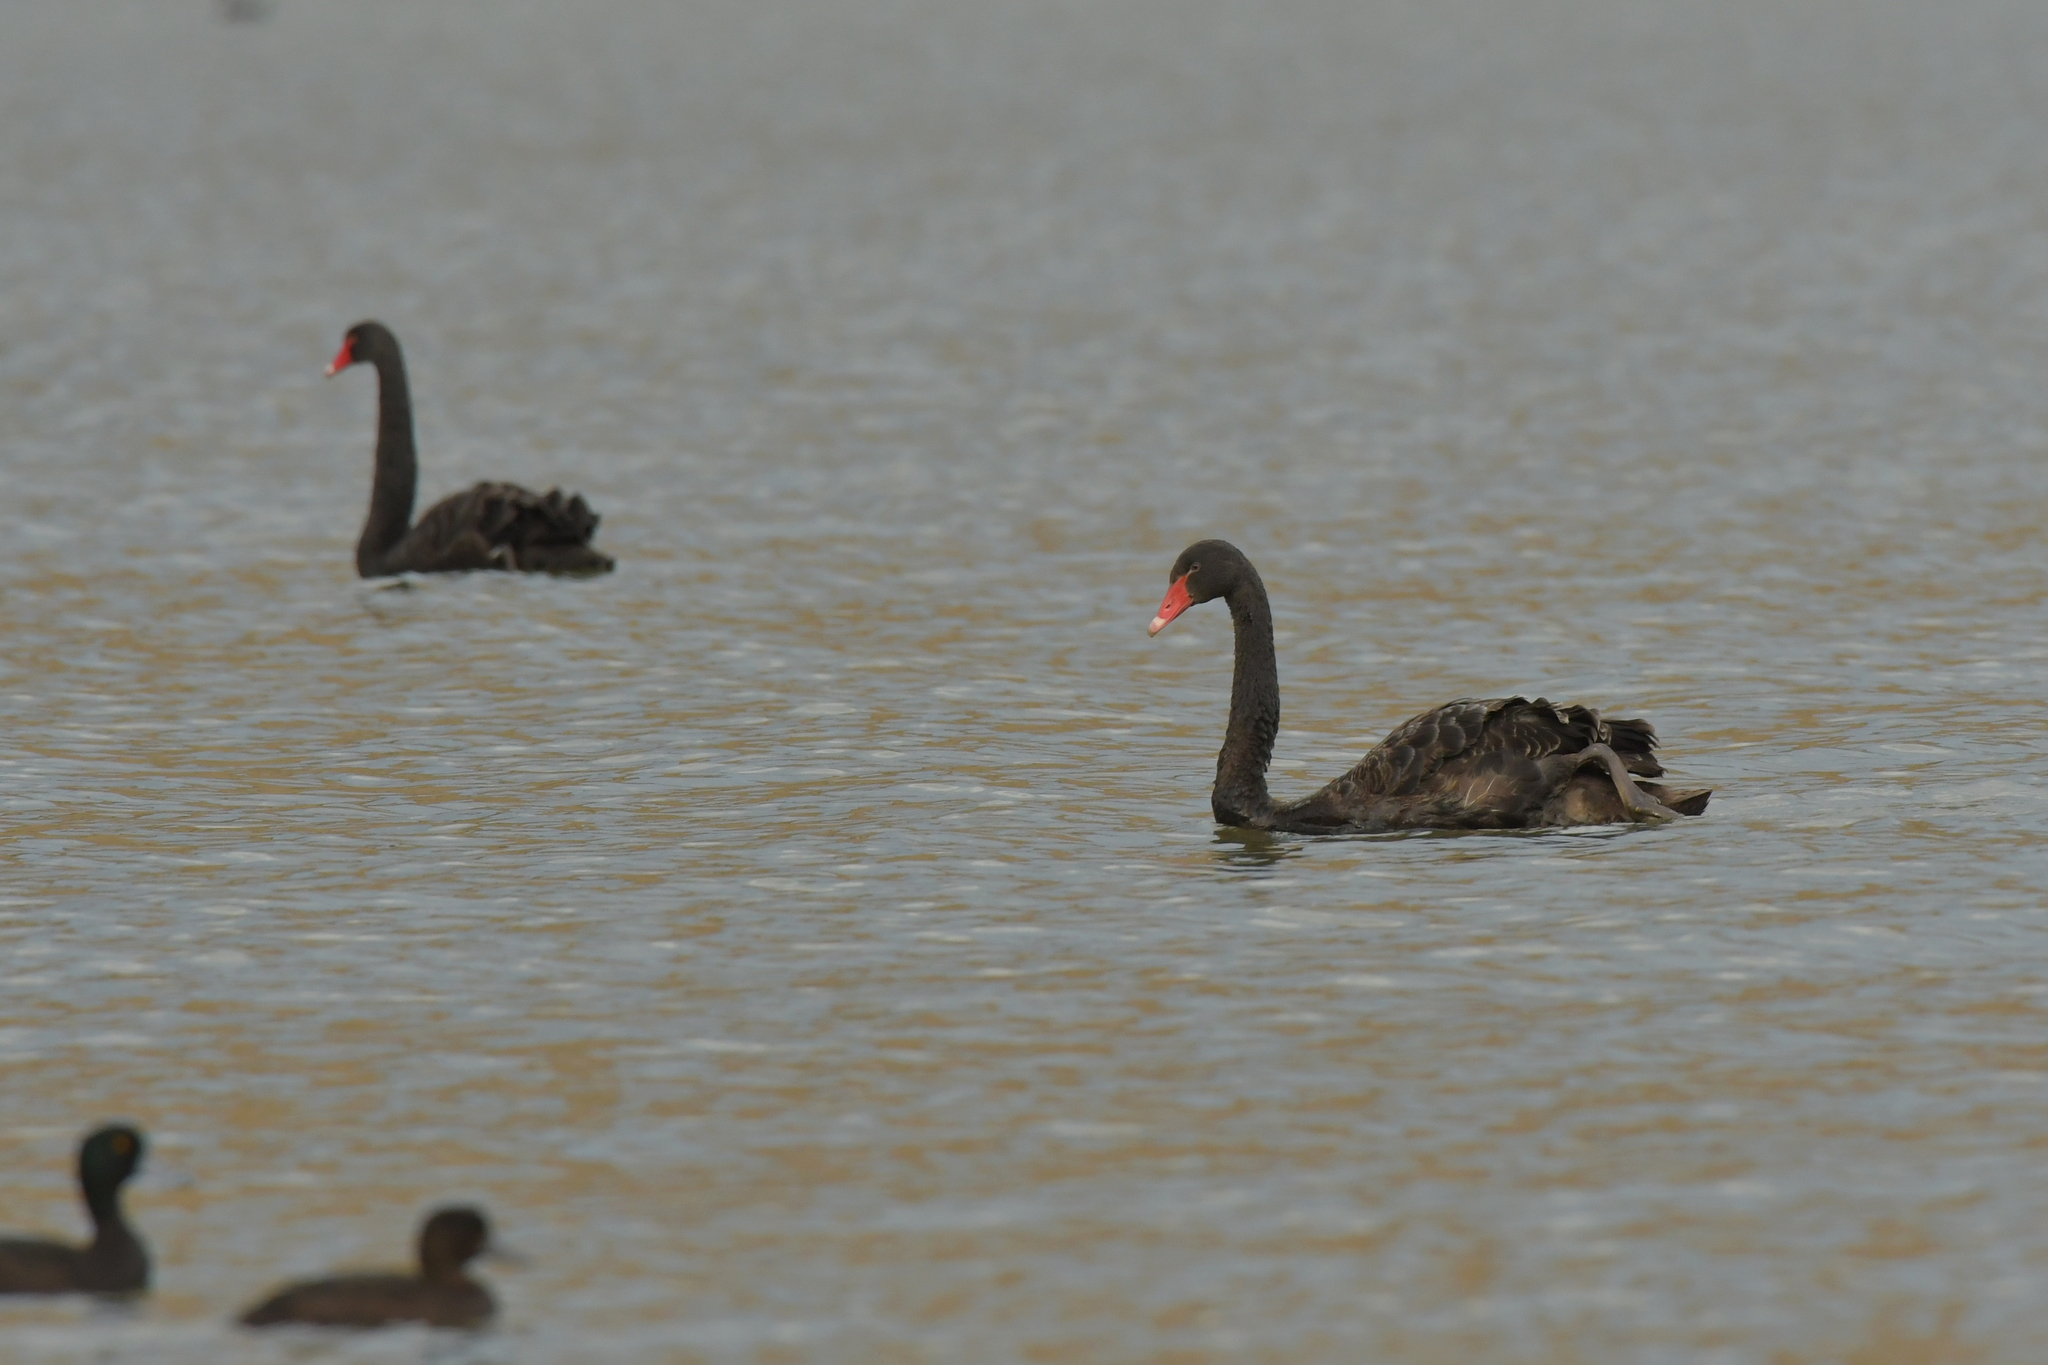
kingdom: Animalia
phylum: Chordata
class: Aves
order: Anseriformes
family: Anatidae
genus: Cygnus
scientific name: Cygnus atratus
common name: Black swan
